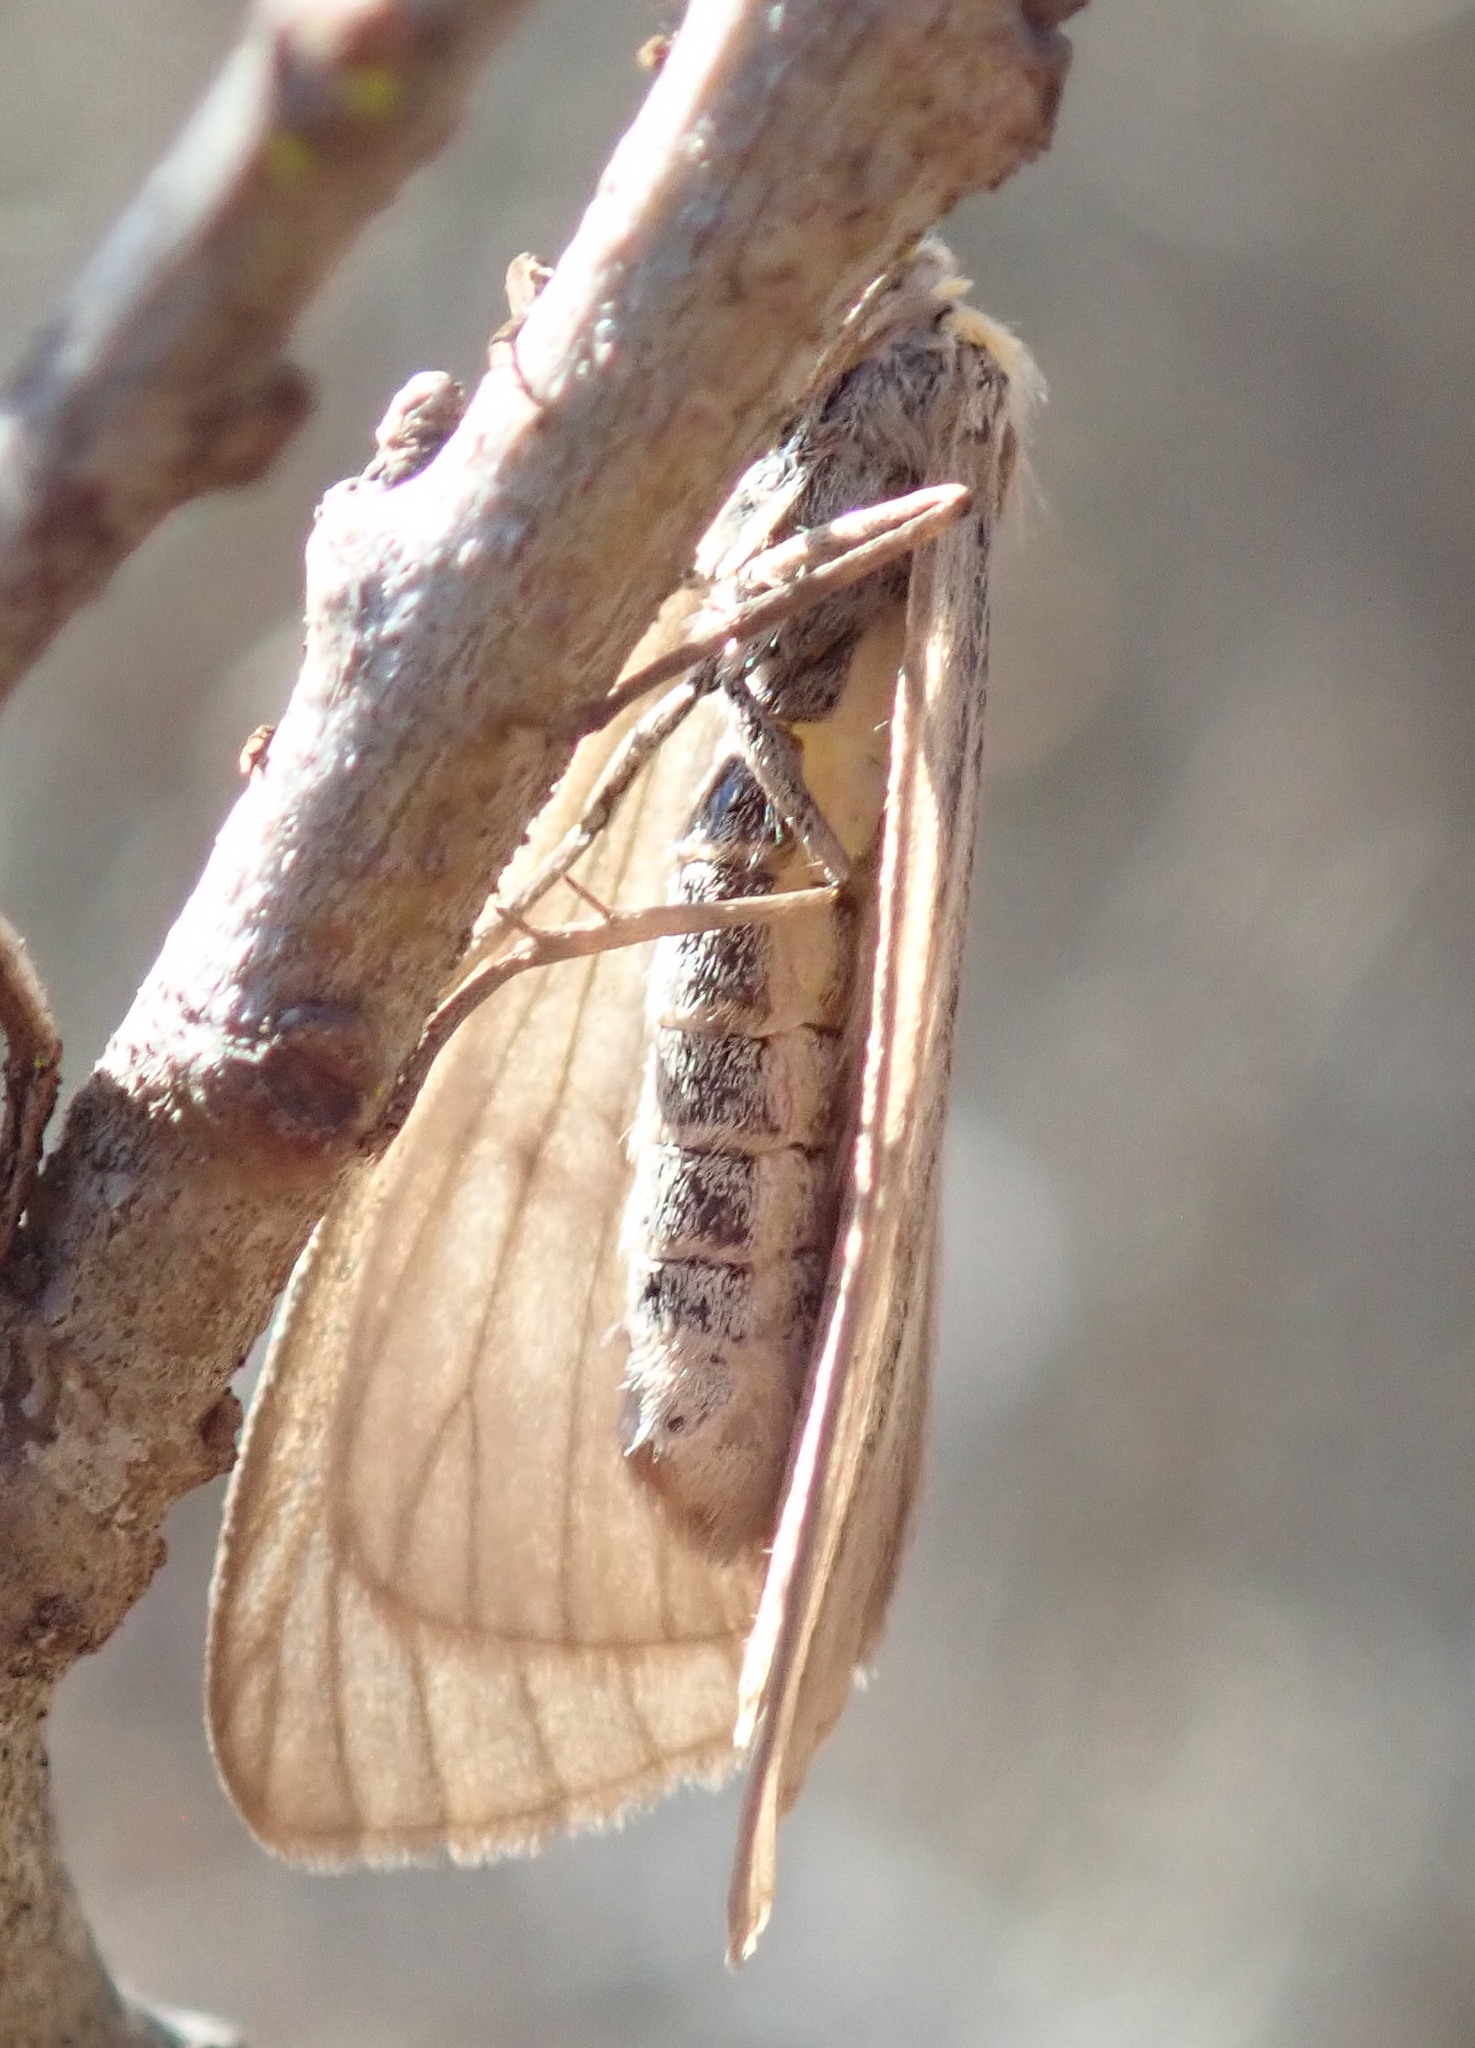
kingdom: Animalia
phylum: Arthropoda
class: Insecta
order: Lepidoptera
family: Notodontidae
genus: Phryganidia
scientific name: Phryganidia californica
